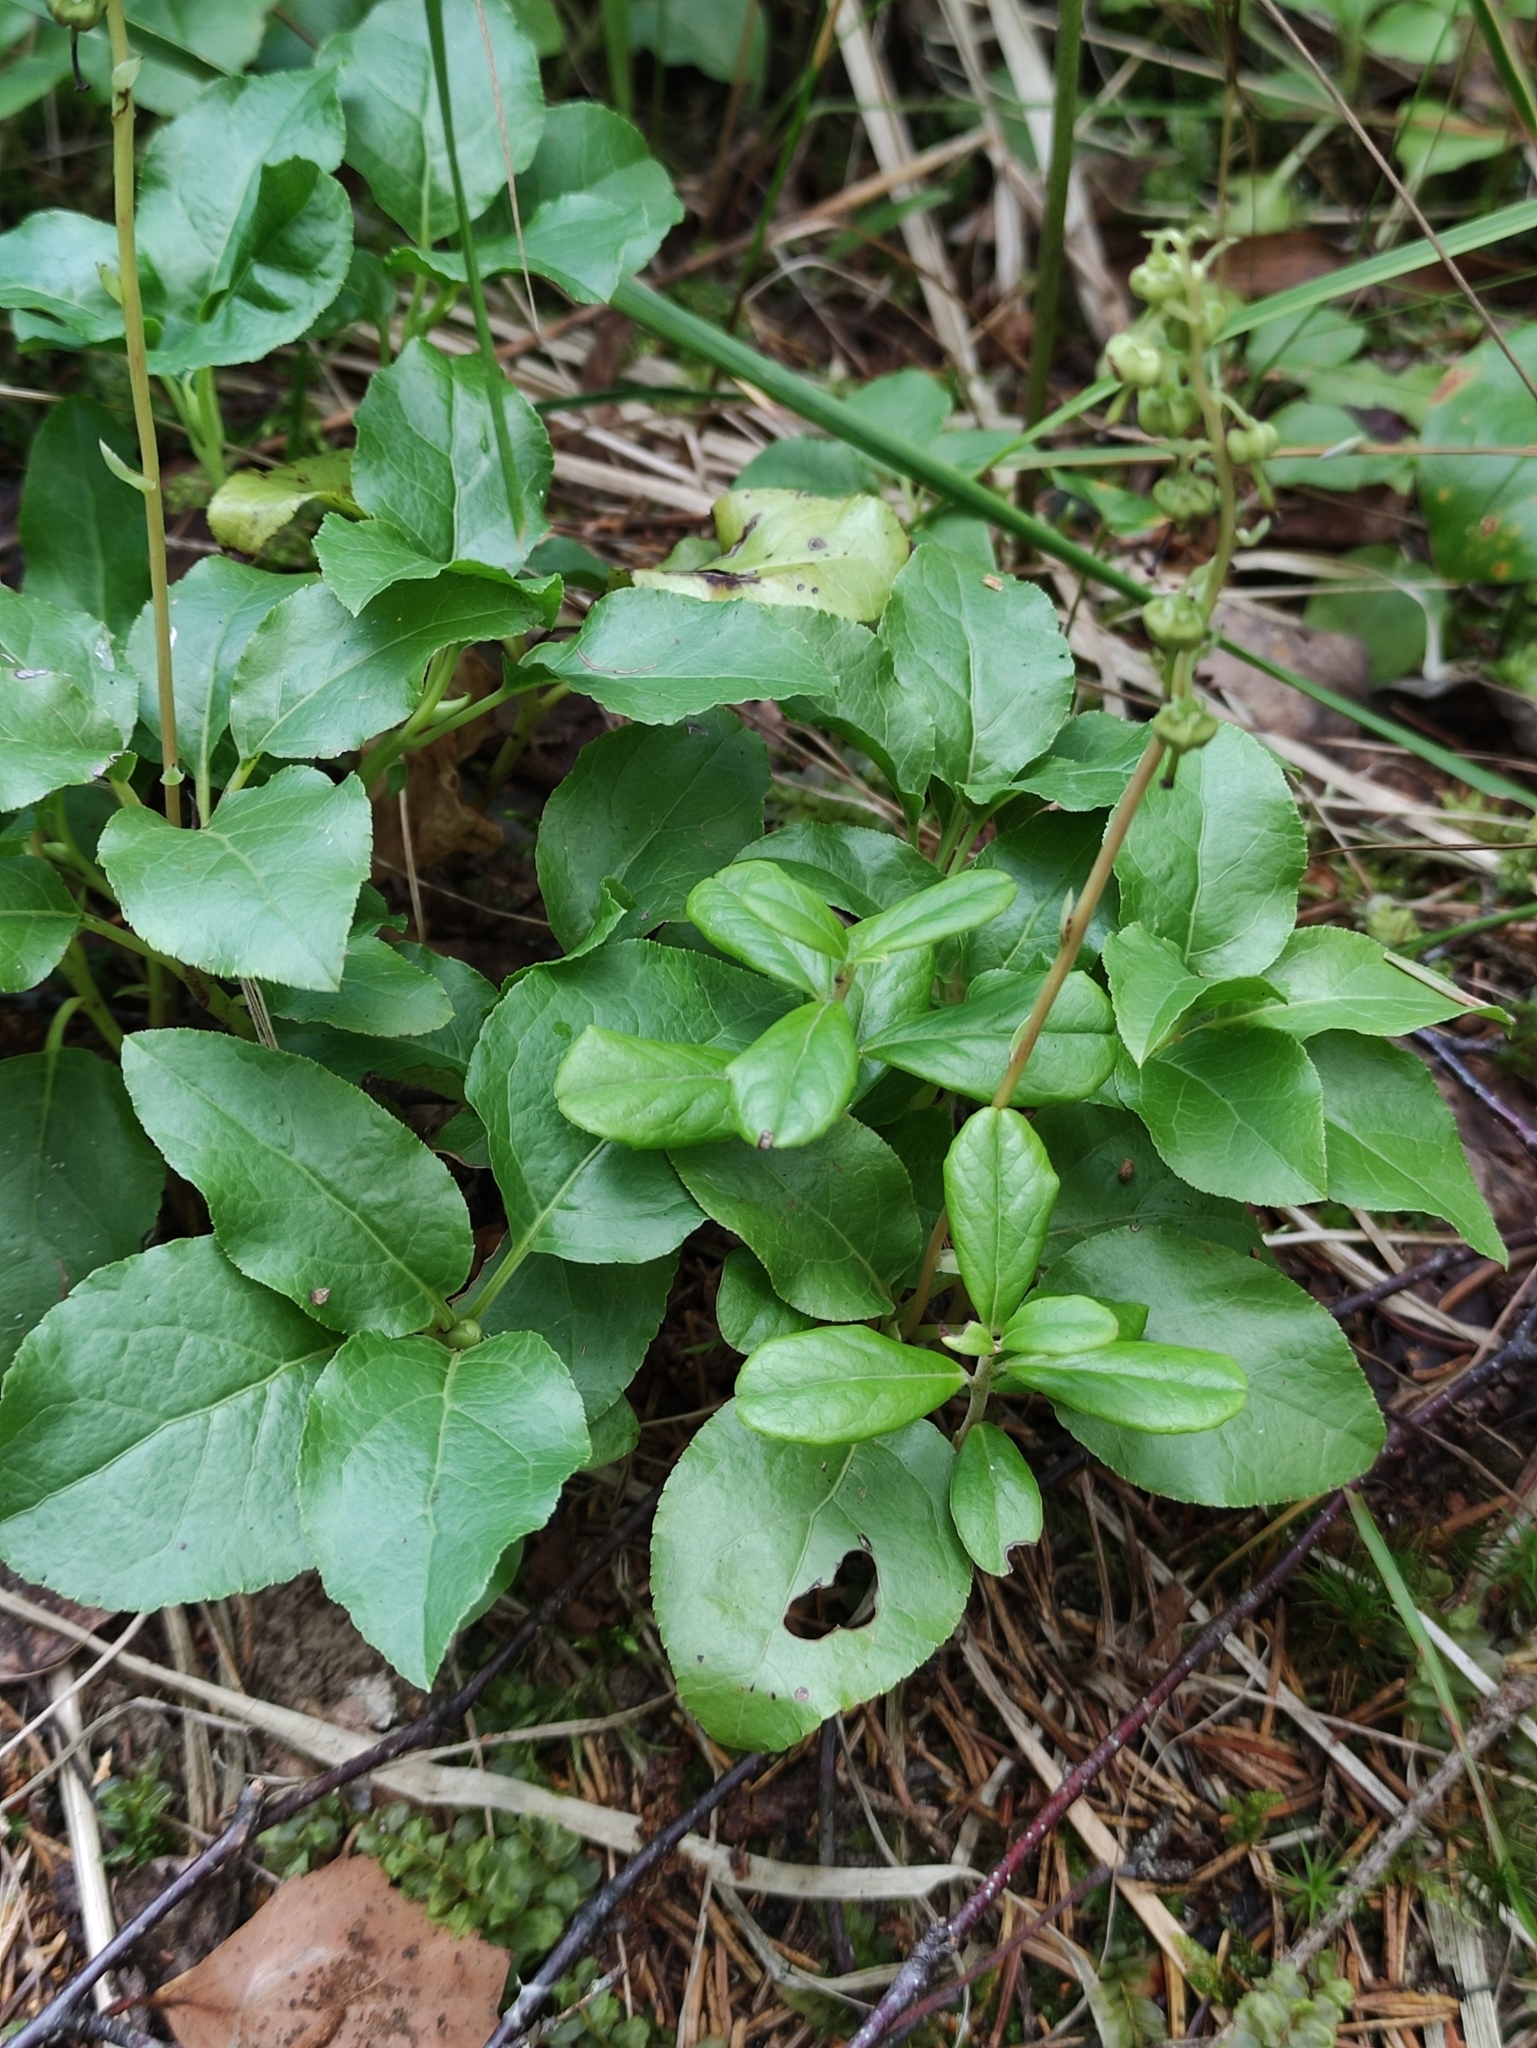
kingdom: Plantae
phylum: Tracheophyta
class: Magnoliopsida
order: Ericales
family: Ericaceae
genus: Orthilia
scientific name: Orthilia secunda
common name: One-sided orthilia
